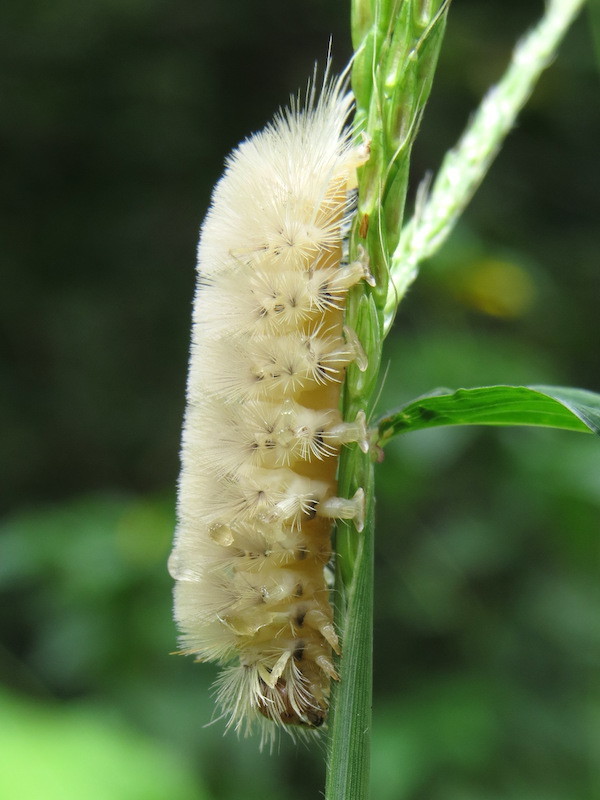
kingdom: Animalia
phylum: Arthropoda
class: Insecta
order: Lepidoptera
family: Erebidae
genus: Halysidota
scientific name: Halysidota harrisii
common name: Sycamore tussock moth
